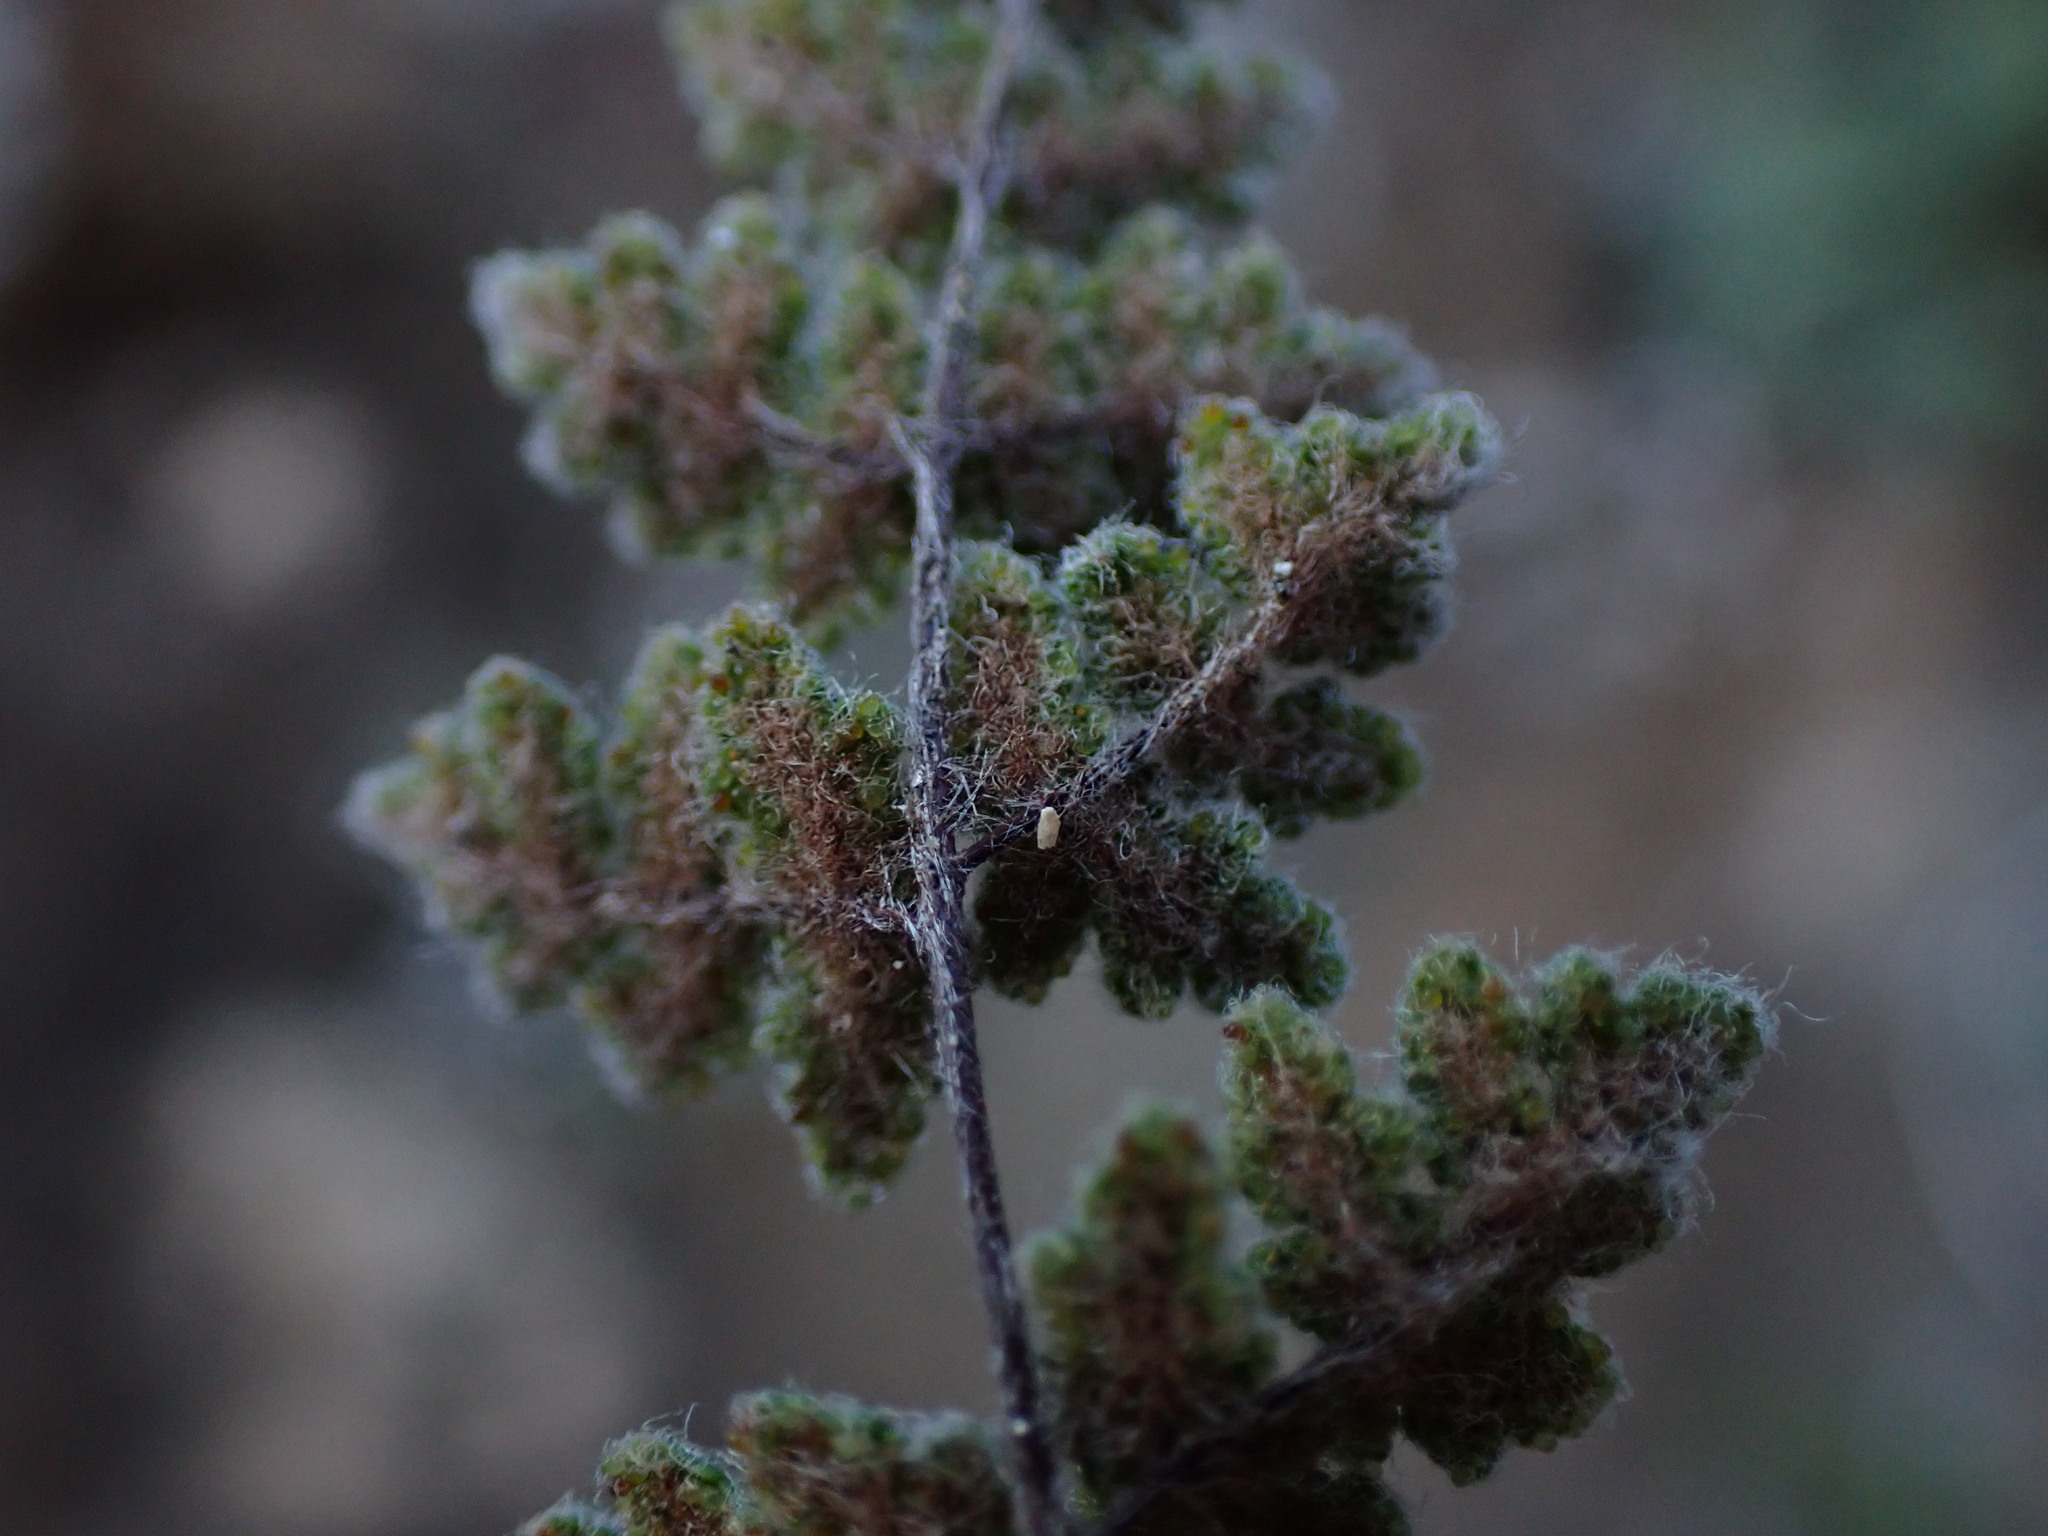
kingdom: Plantae
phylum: Tracheophyta
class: Polypodiopsida
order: Polypodiales
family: Pteridaceae
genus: Myriopteris
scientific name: Myriopteris parryi
